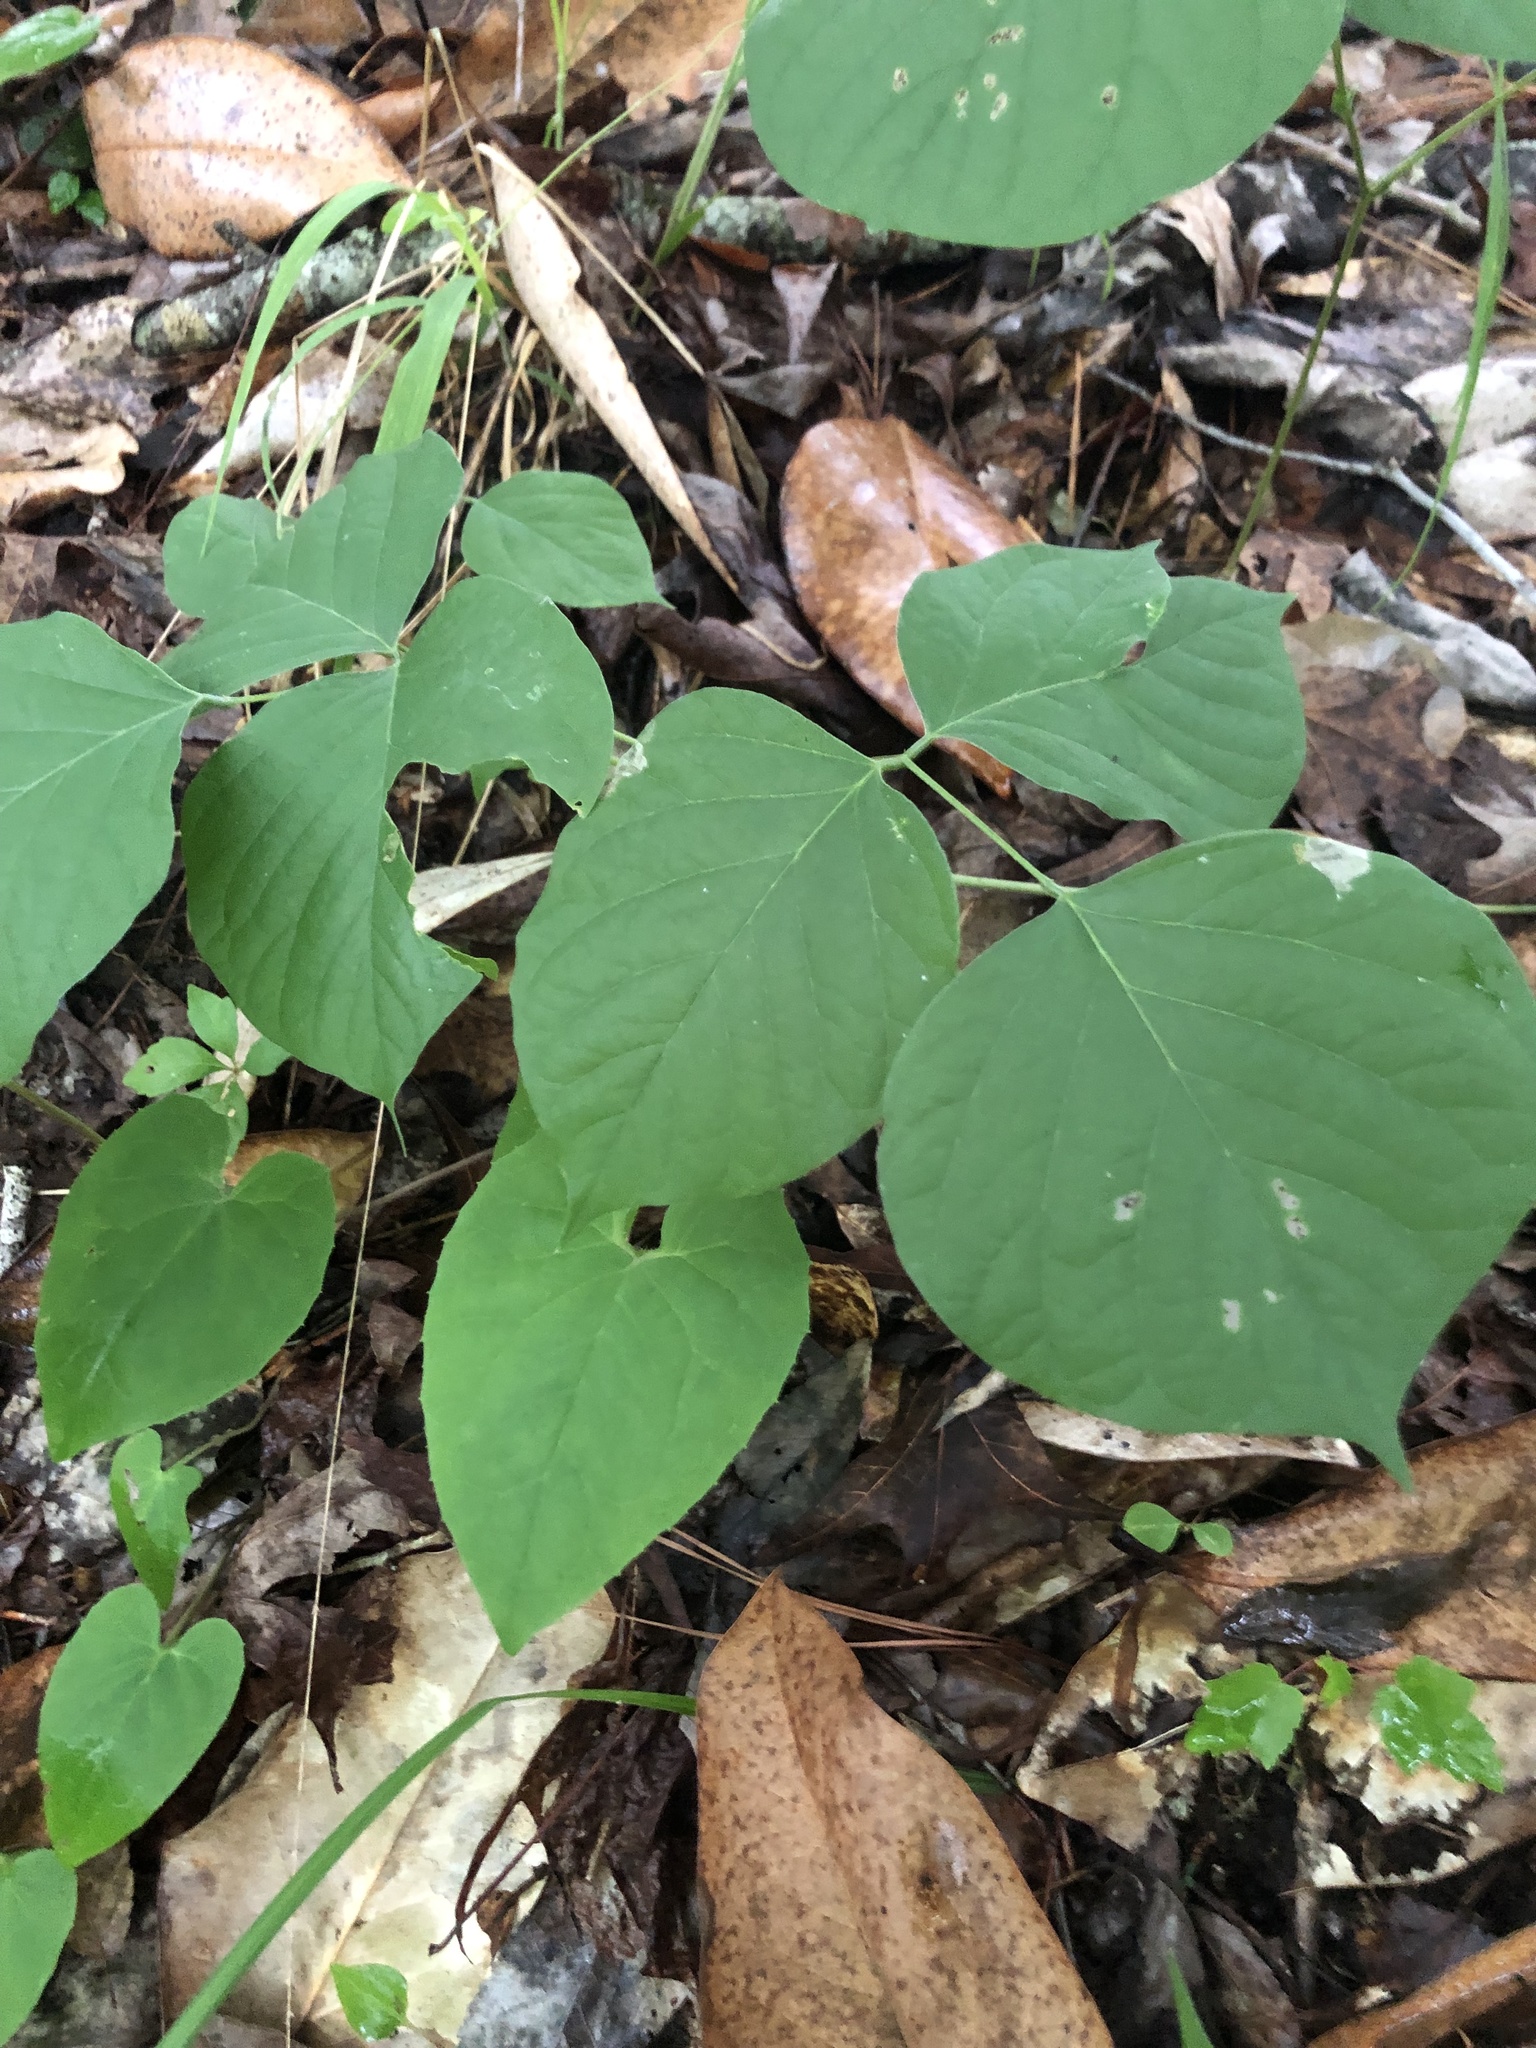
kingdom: Plantae
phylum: Tracheophyta
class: Magnoliopsida
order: Fabales
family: Fabaceae
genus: Lackeya
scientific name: Lackeya multiflora
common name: Boykin's clusterpea
